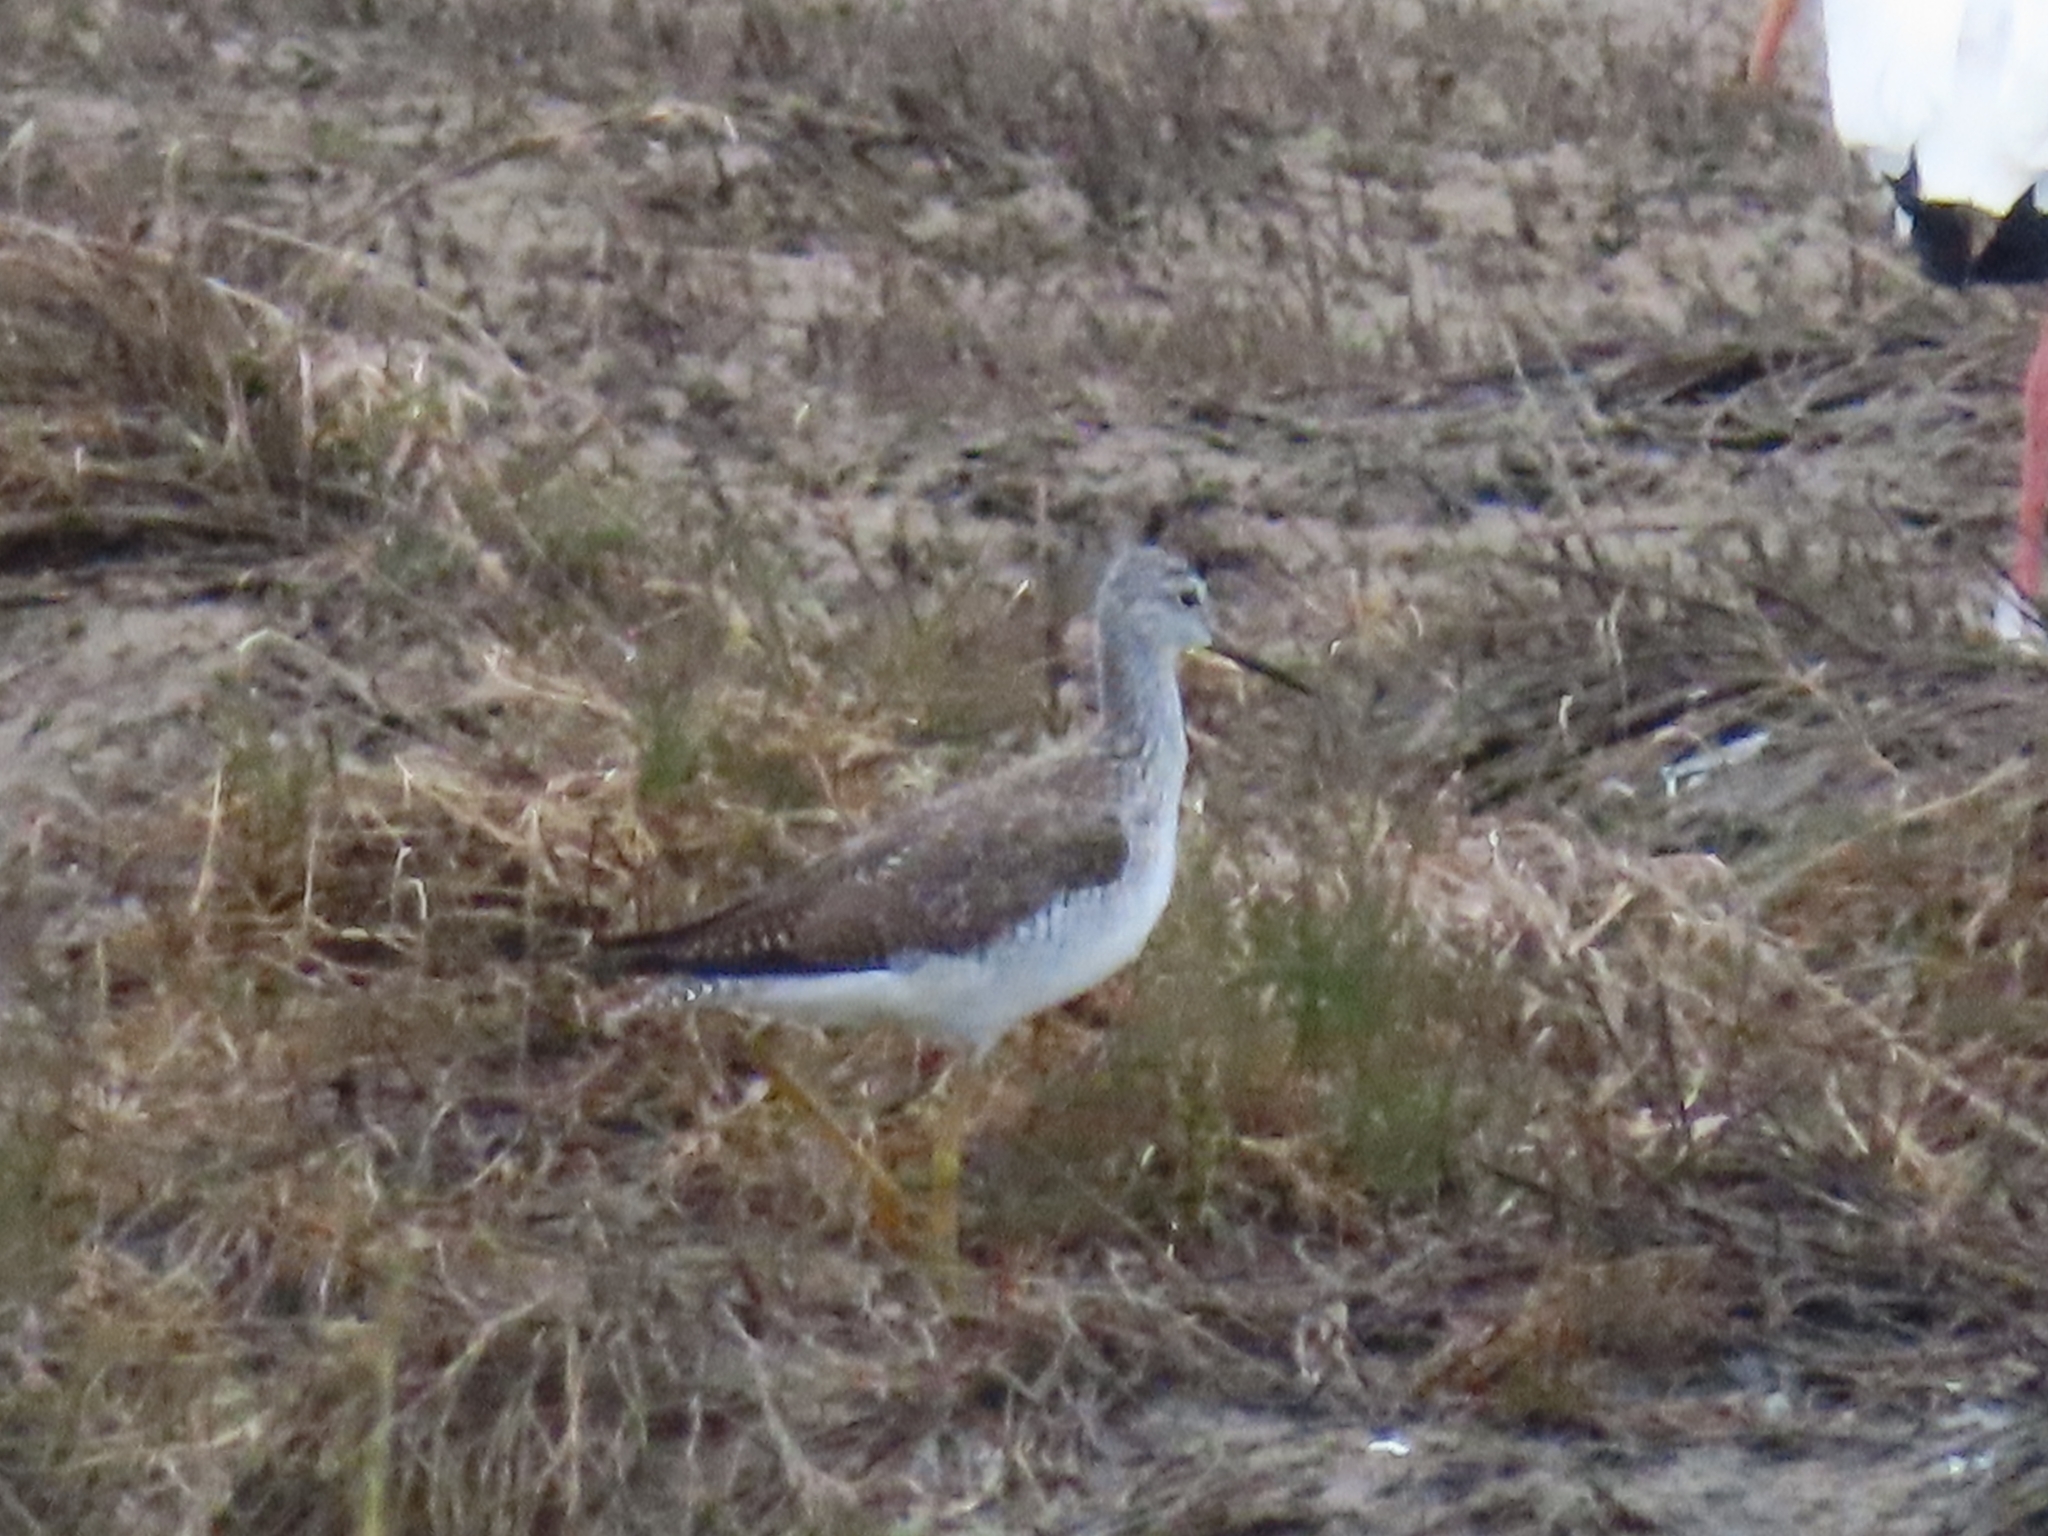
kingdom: Animalia
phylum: Chordata
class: Aves
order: Charadriiformes
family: Scolopacidae
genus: Tringa
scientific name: Tringa melanoleuca
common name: Greater yellowlegs
